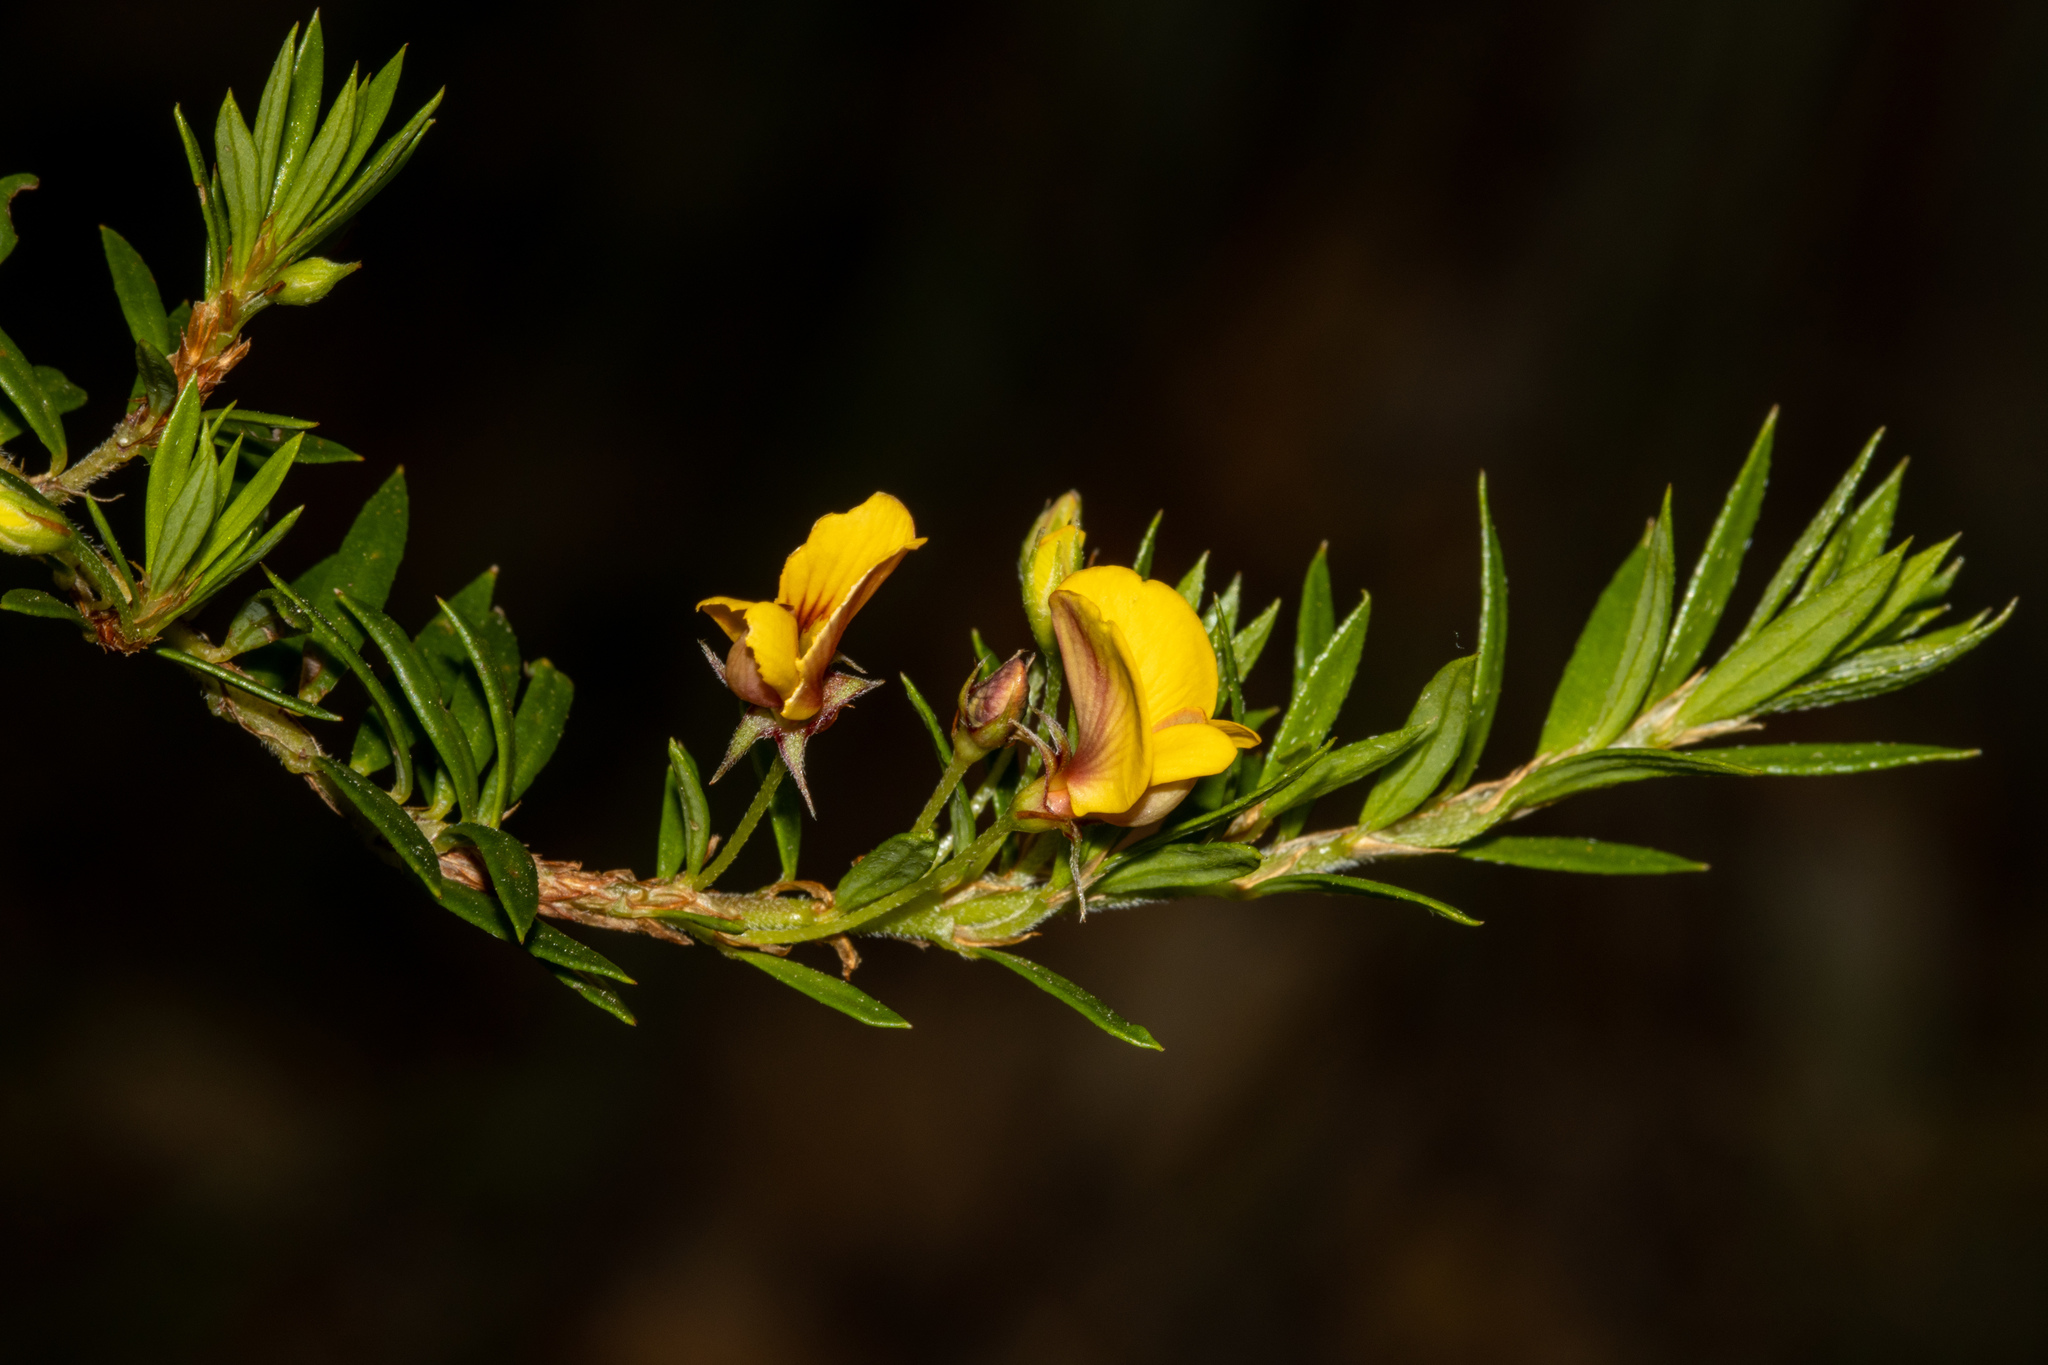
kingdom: Plantae
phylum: Tracheophyta
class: Magnoliopsida
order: Fabales
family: Fabaceae
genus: Pultenaea
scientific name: Pultenaea pedunculata
